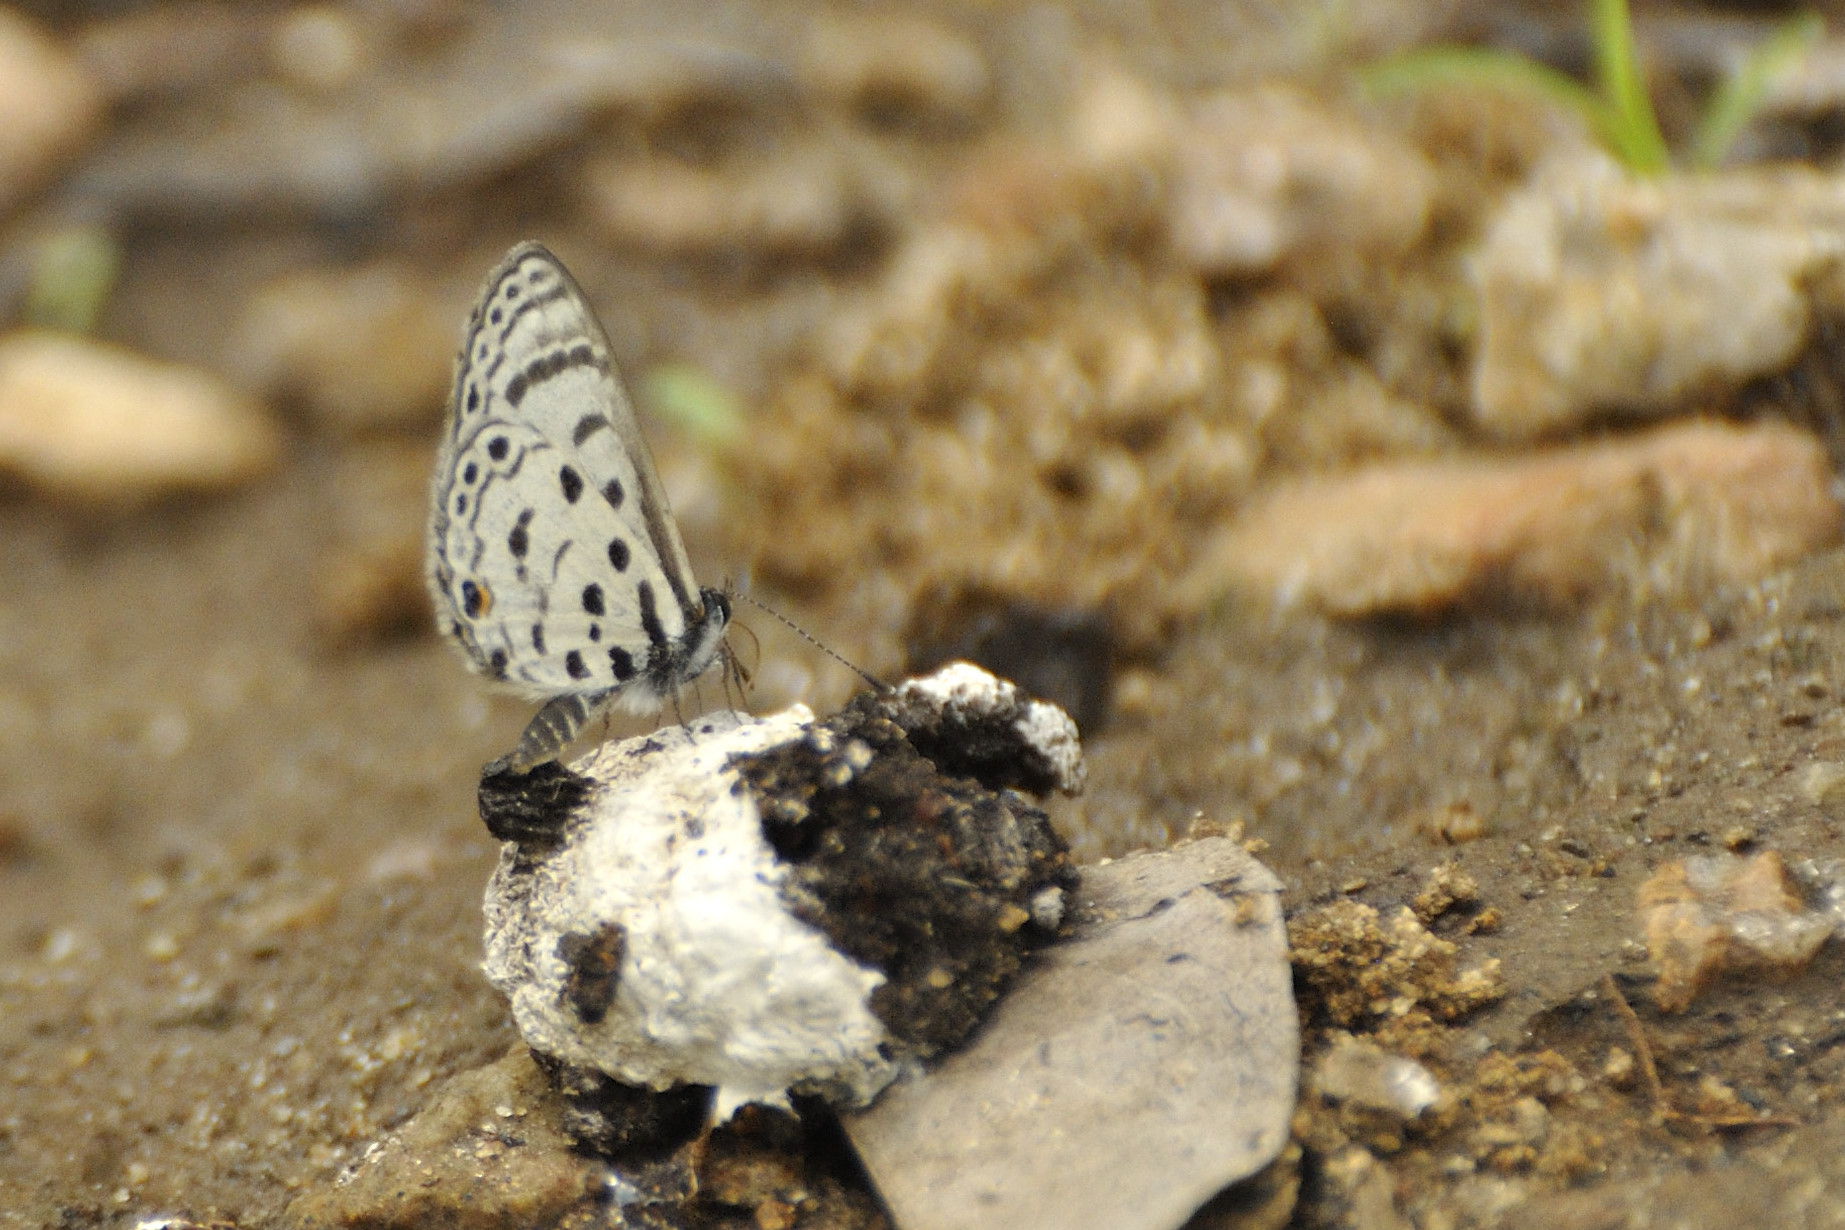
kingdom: Animalia
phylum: Arthropoda
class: Insecta
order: Lepidoptera
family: Lycaenidae
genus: Azanus
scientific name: Azanus mirza
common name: Mirza babul blue
